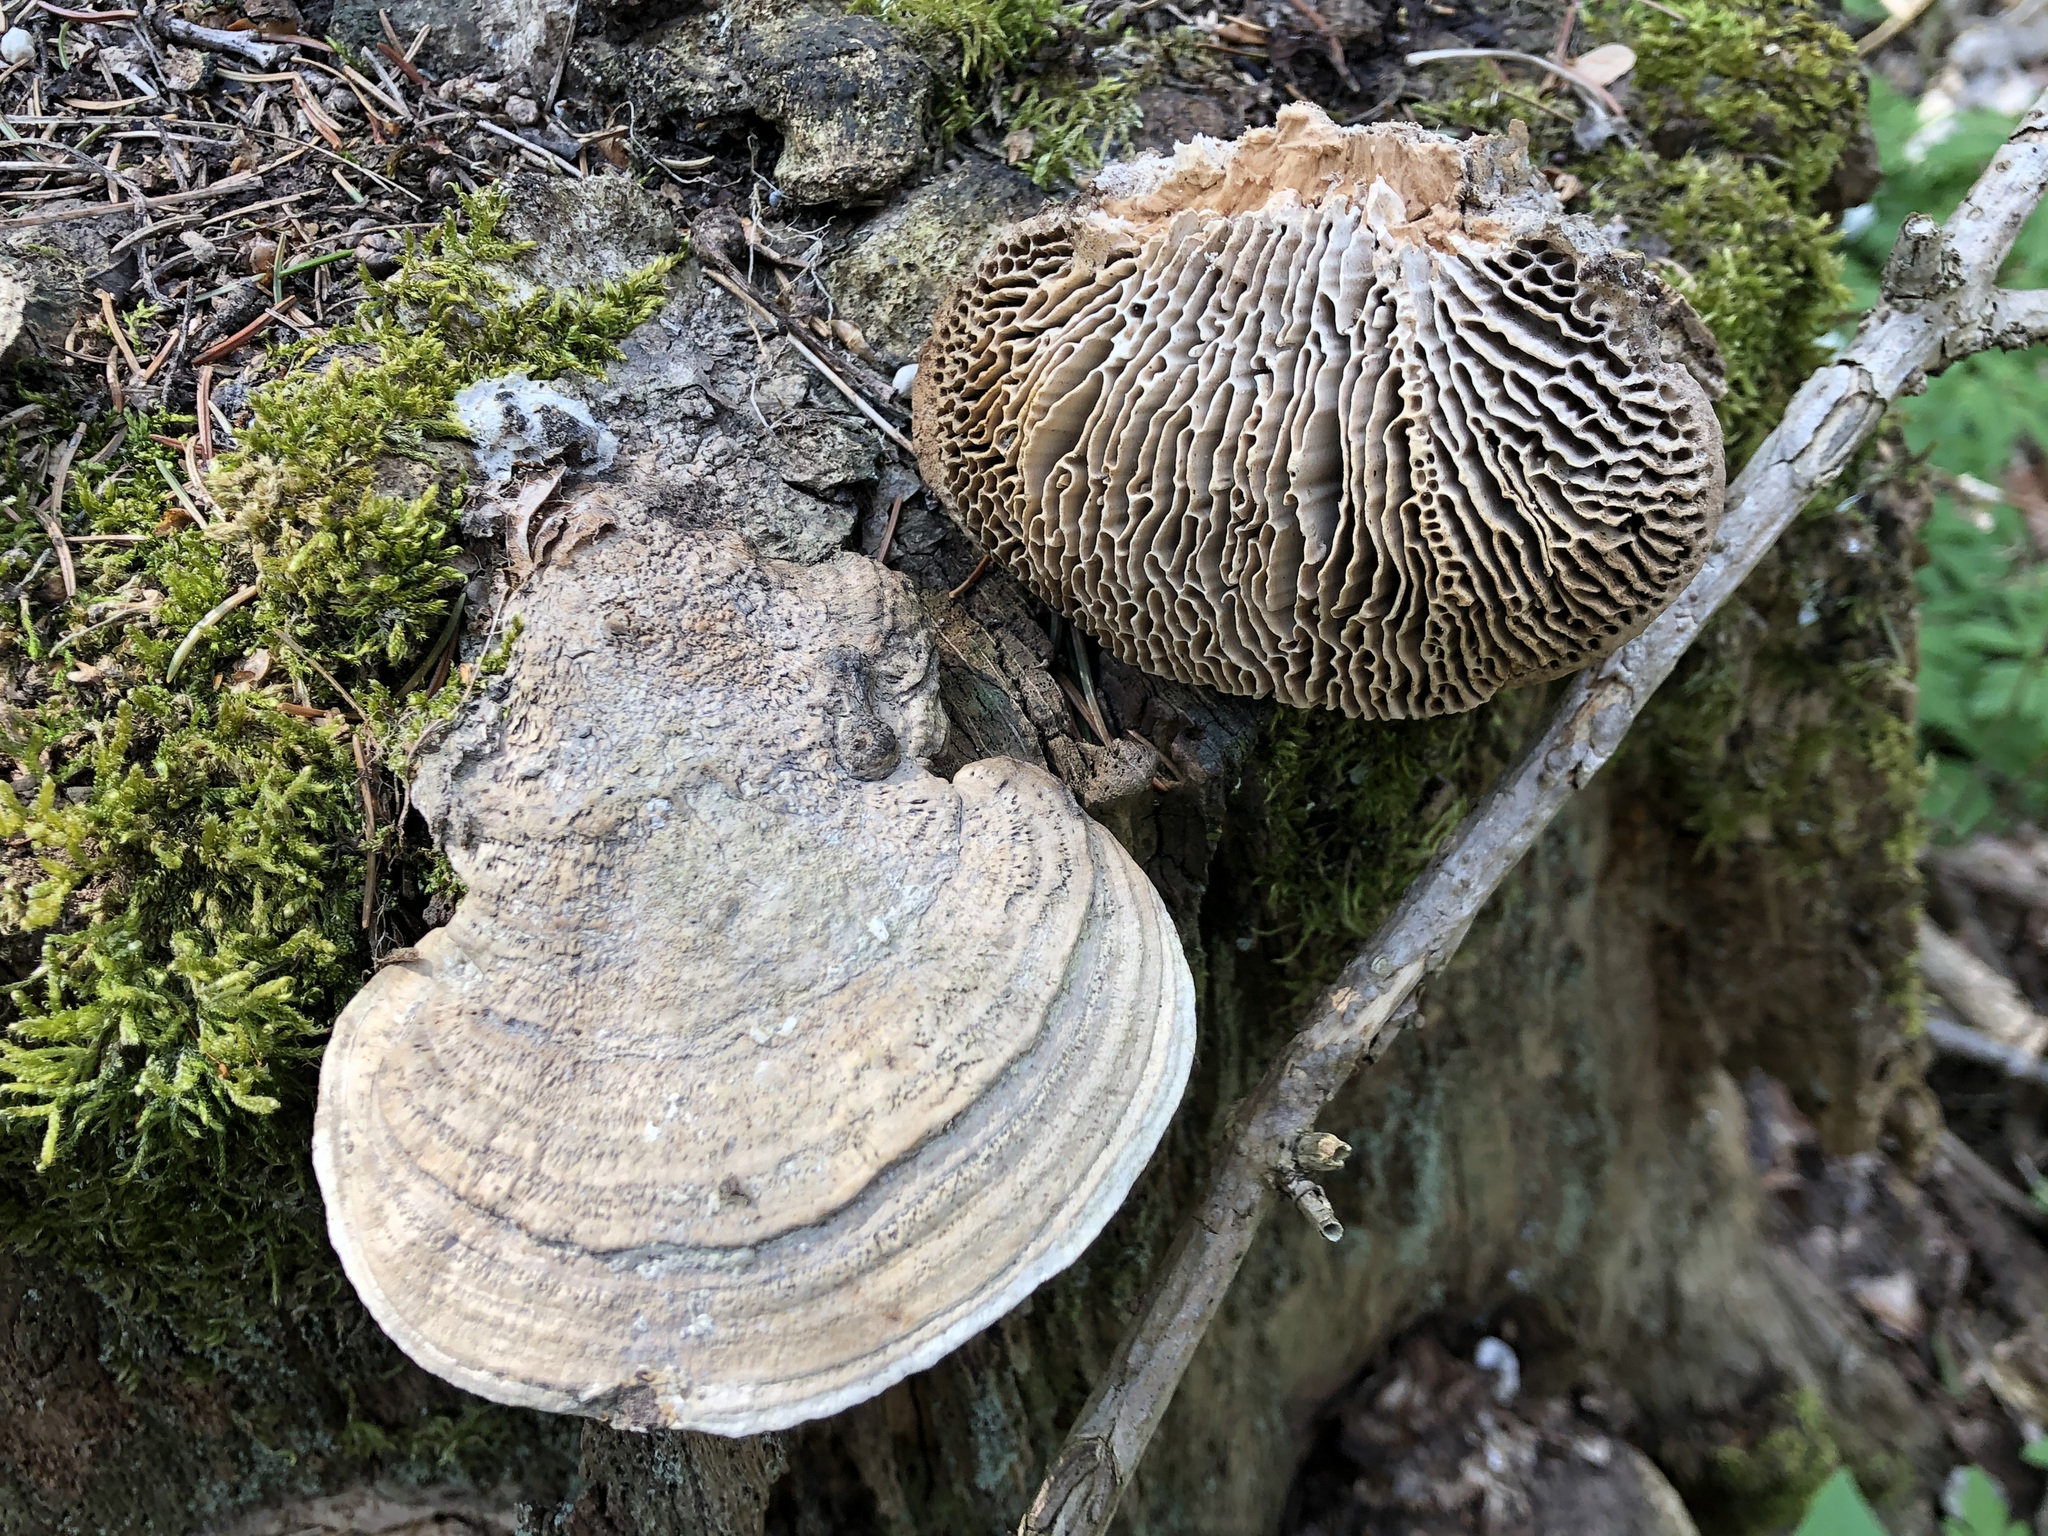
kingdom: Fungi
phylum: Basidiomycota
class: Agaricomycetes
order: Polyporales
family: Fomitopsidaceae
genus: Fomitopsis
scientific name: Fomitopsis
